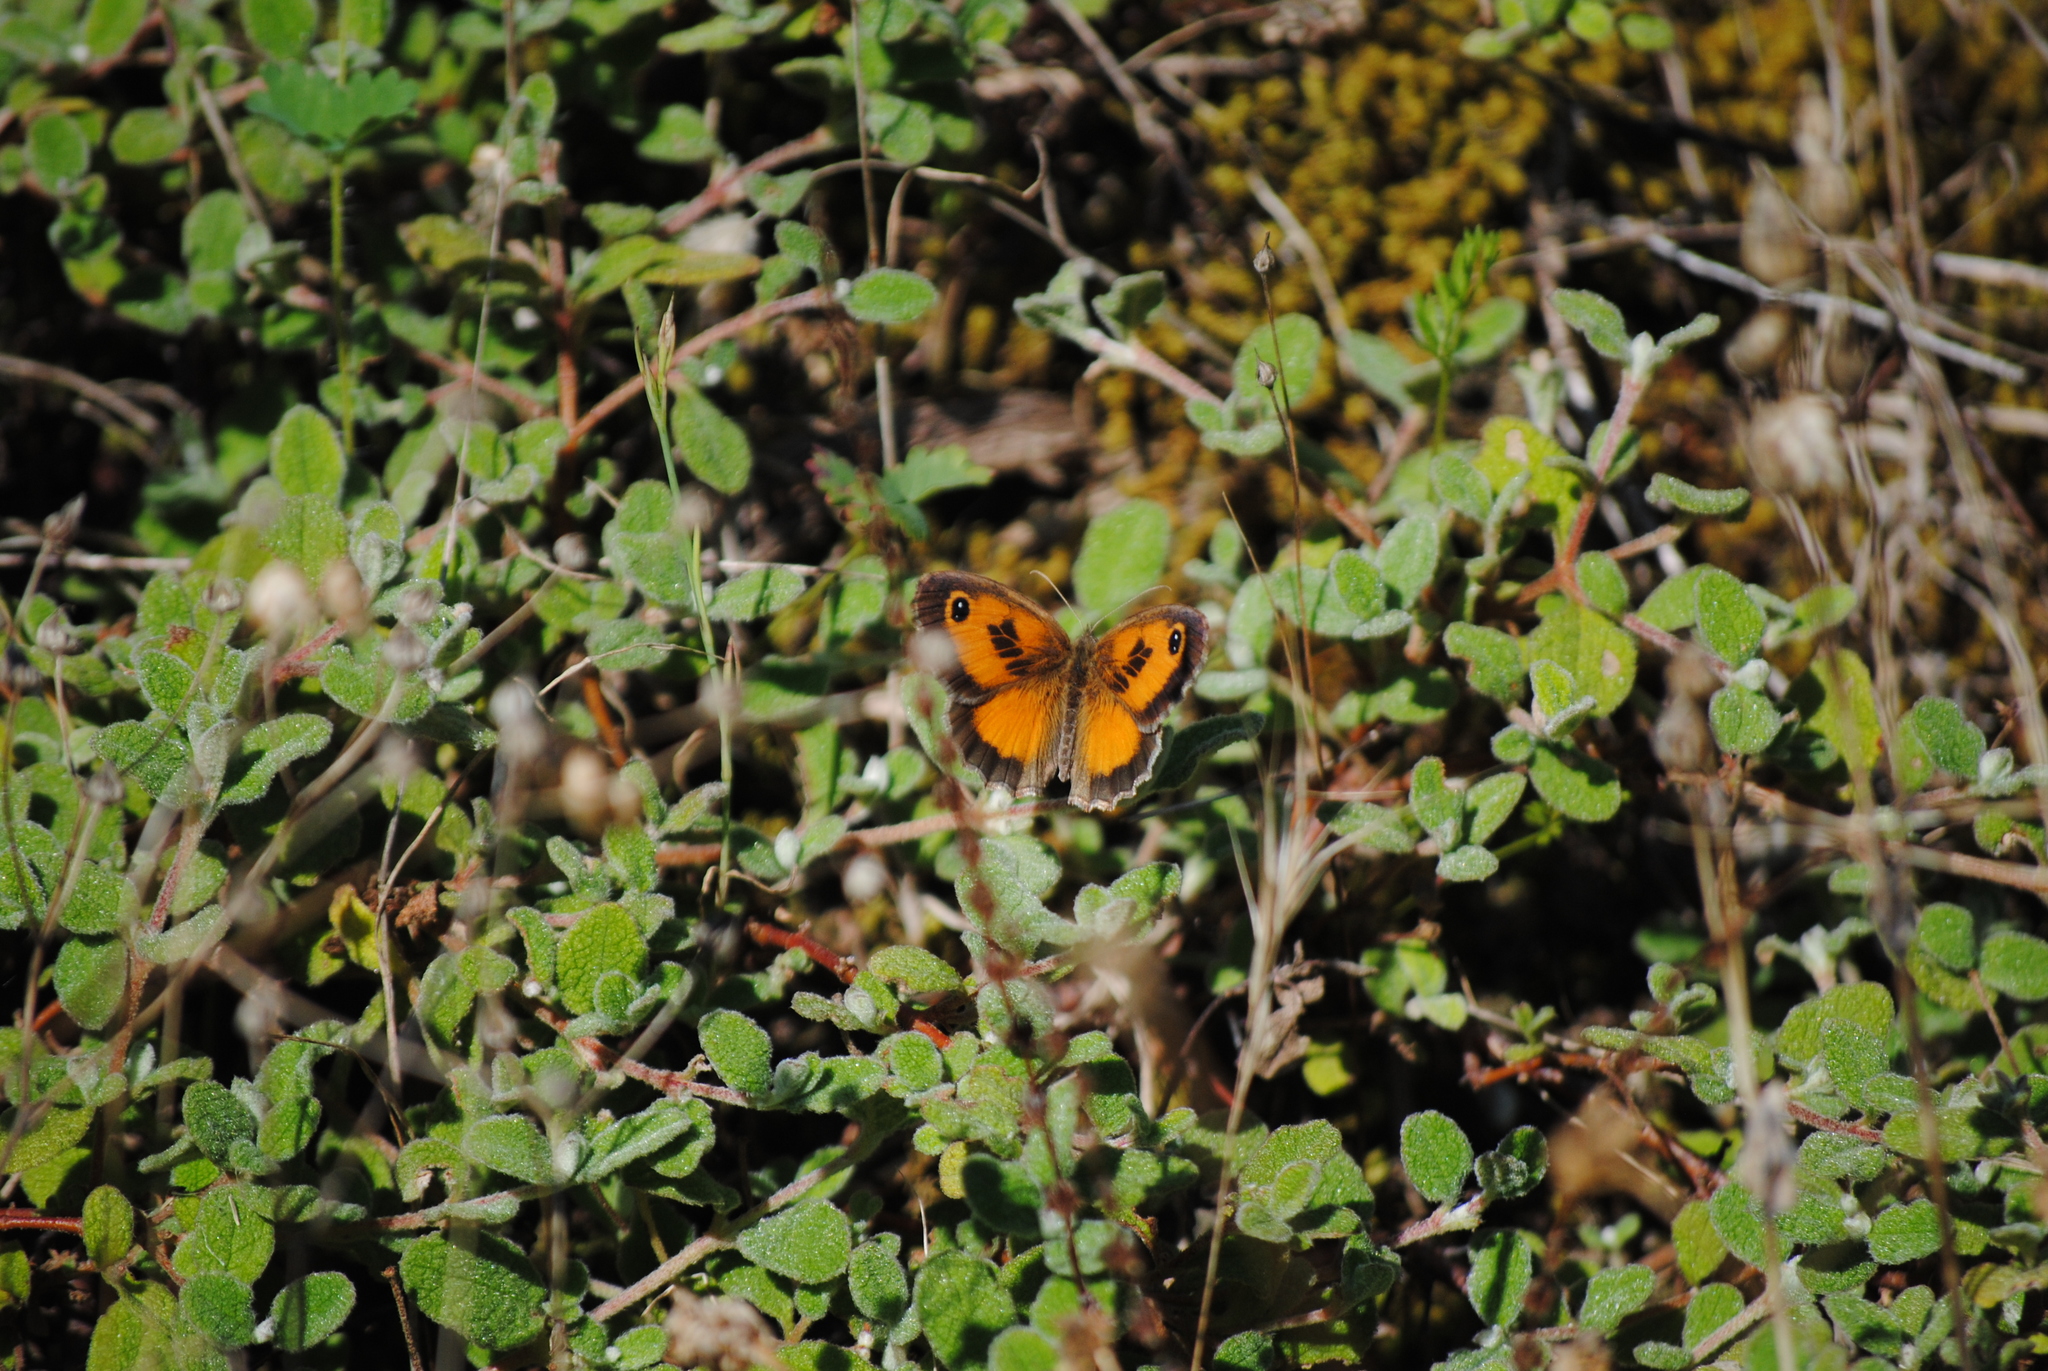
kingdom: Animalia
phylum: Arthropoda
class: Insecta
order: Lepidoptera
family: Nymphalidae
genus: Pyronia
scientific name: Pyronia cecilia
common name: Southern gatekeeper
